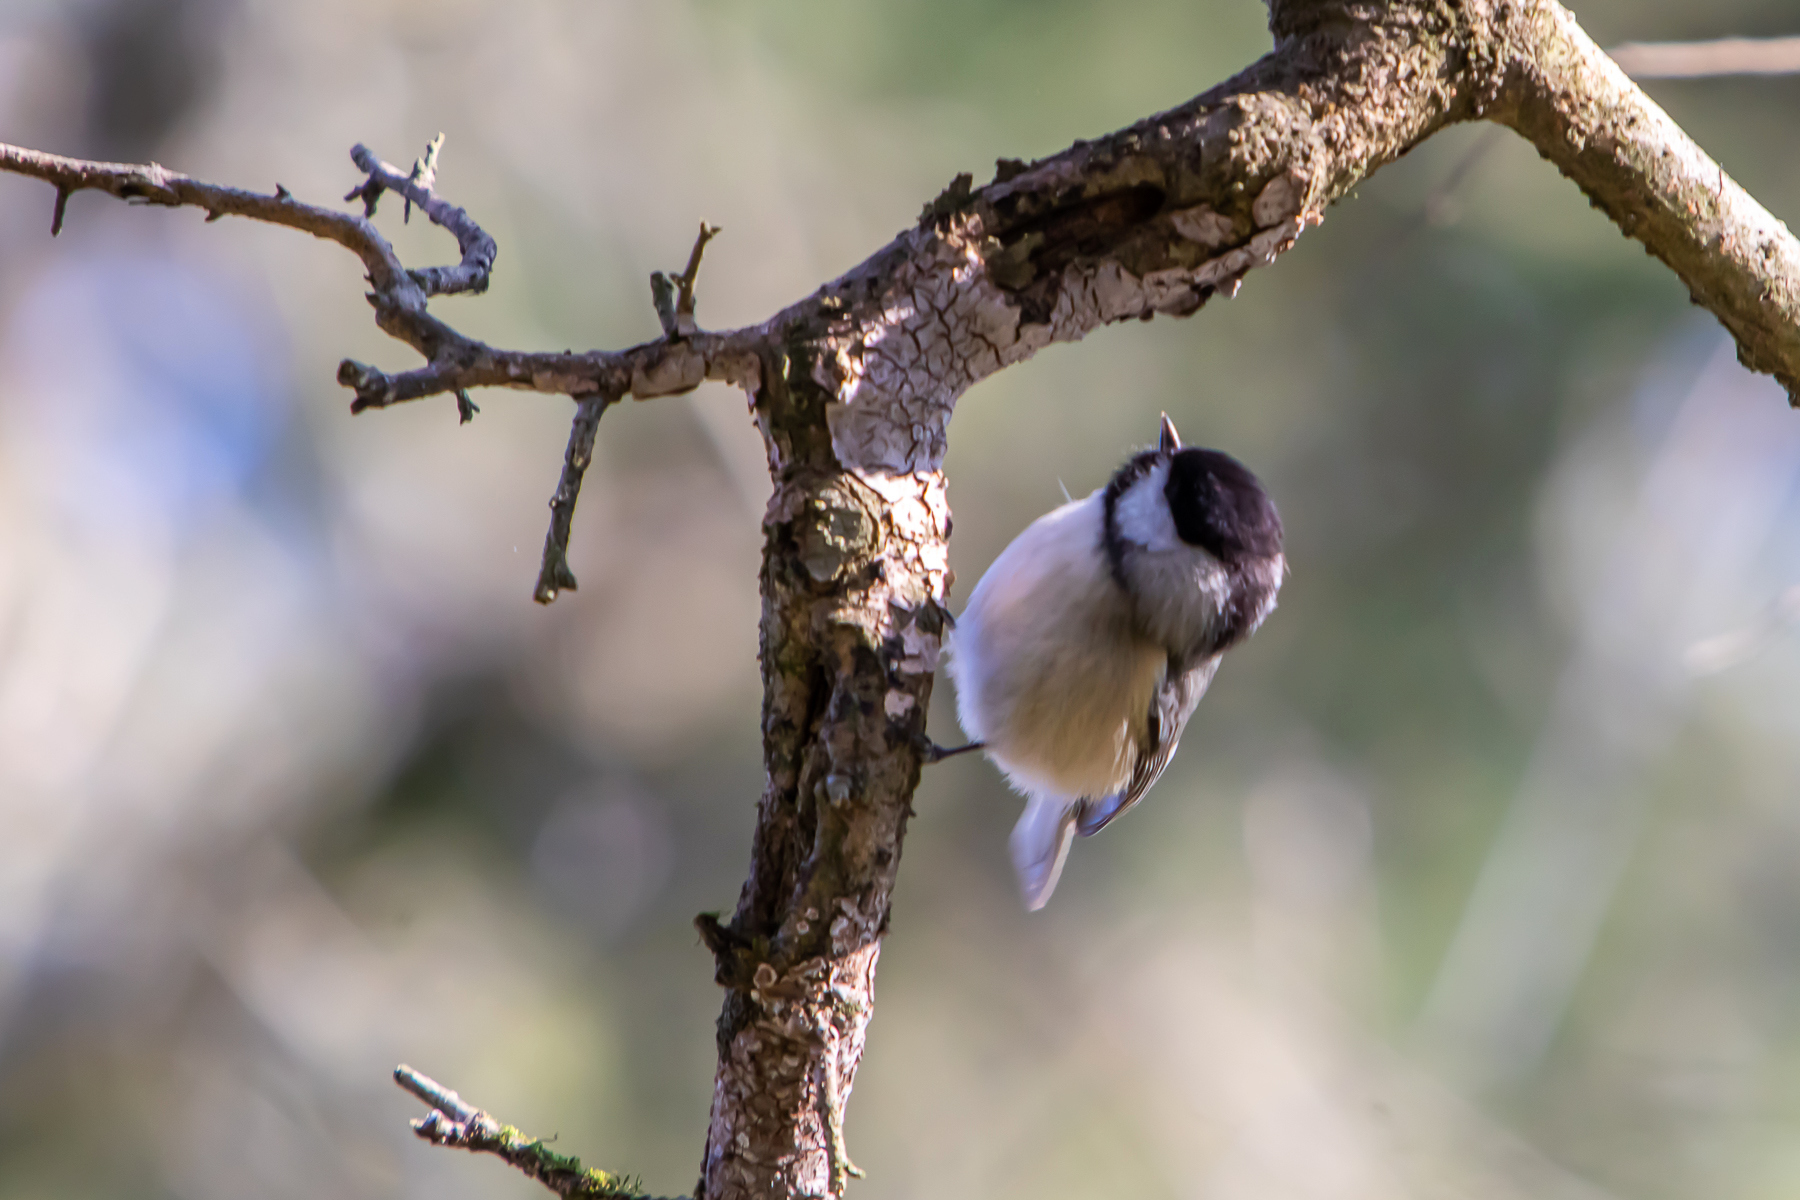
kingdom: Animalia
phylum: Chordata
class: Aves
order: Passeriformes
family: Paridae
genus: Poecile
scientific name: Poecile carolinensis
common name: Carolina chickadee
